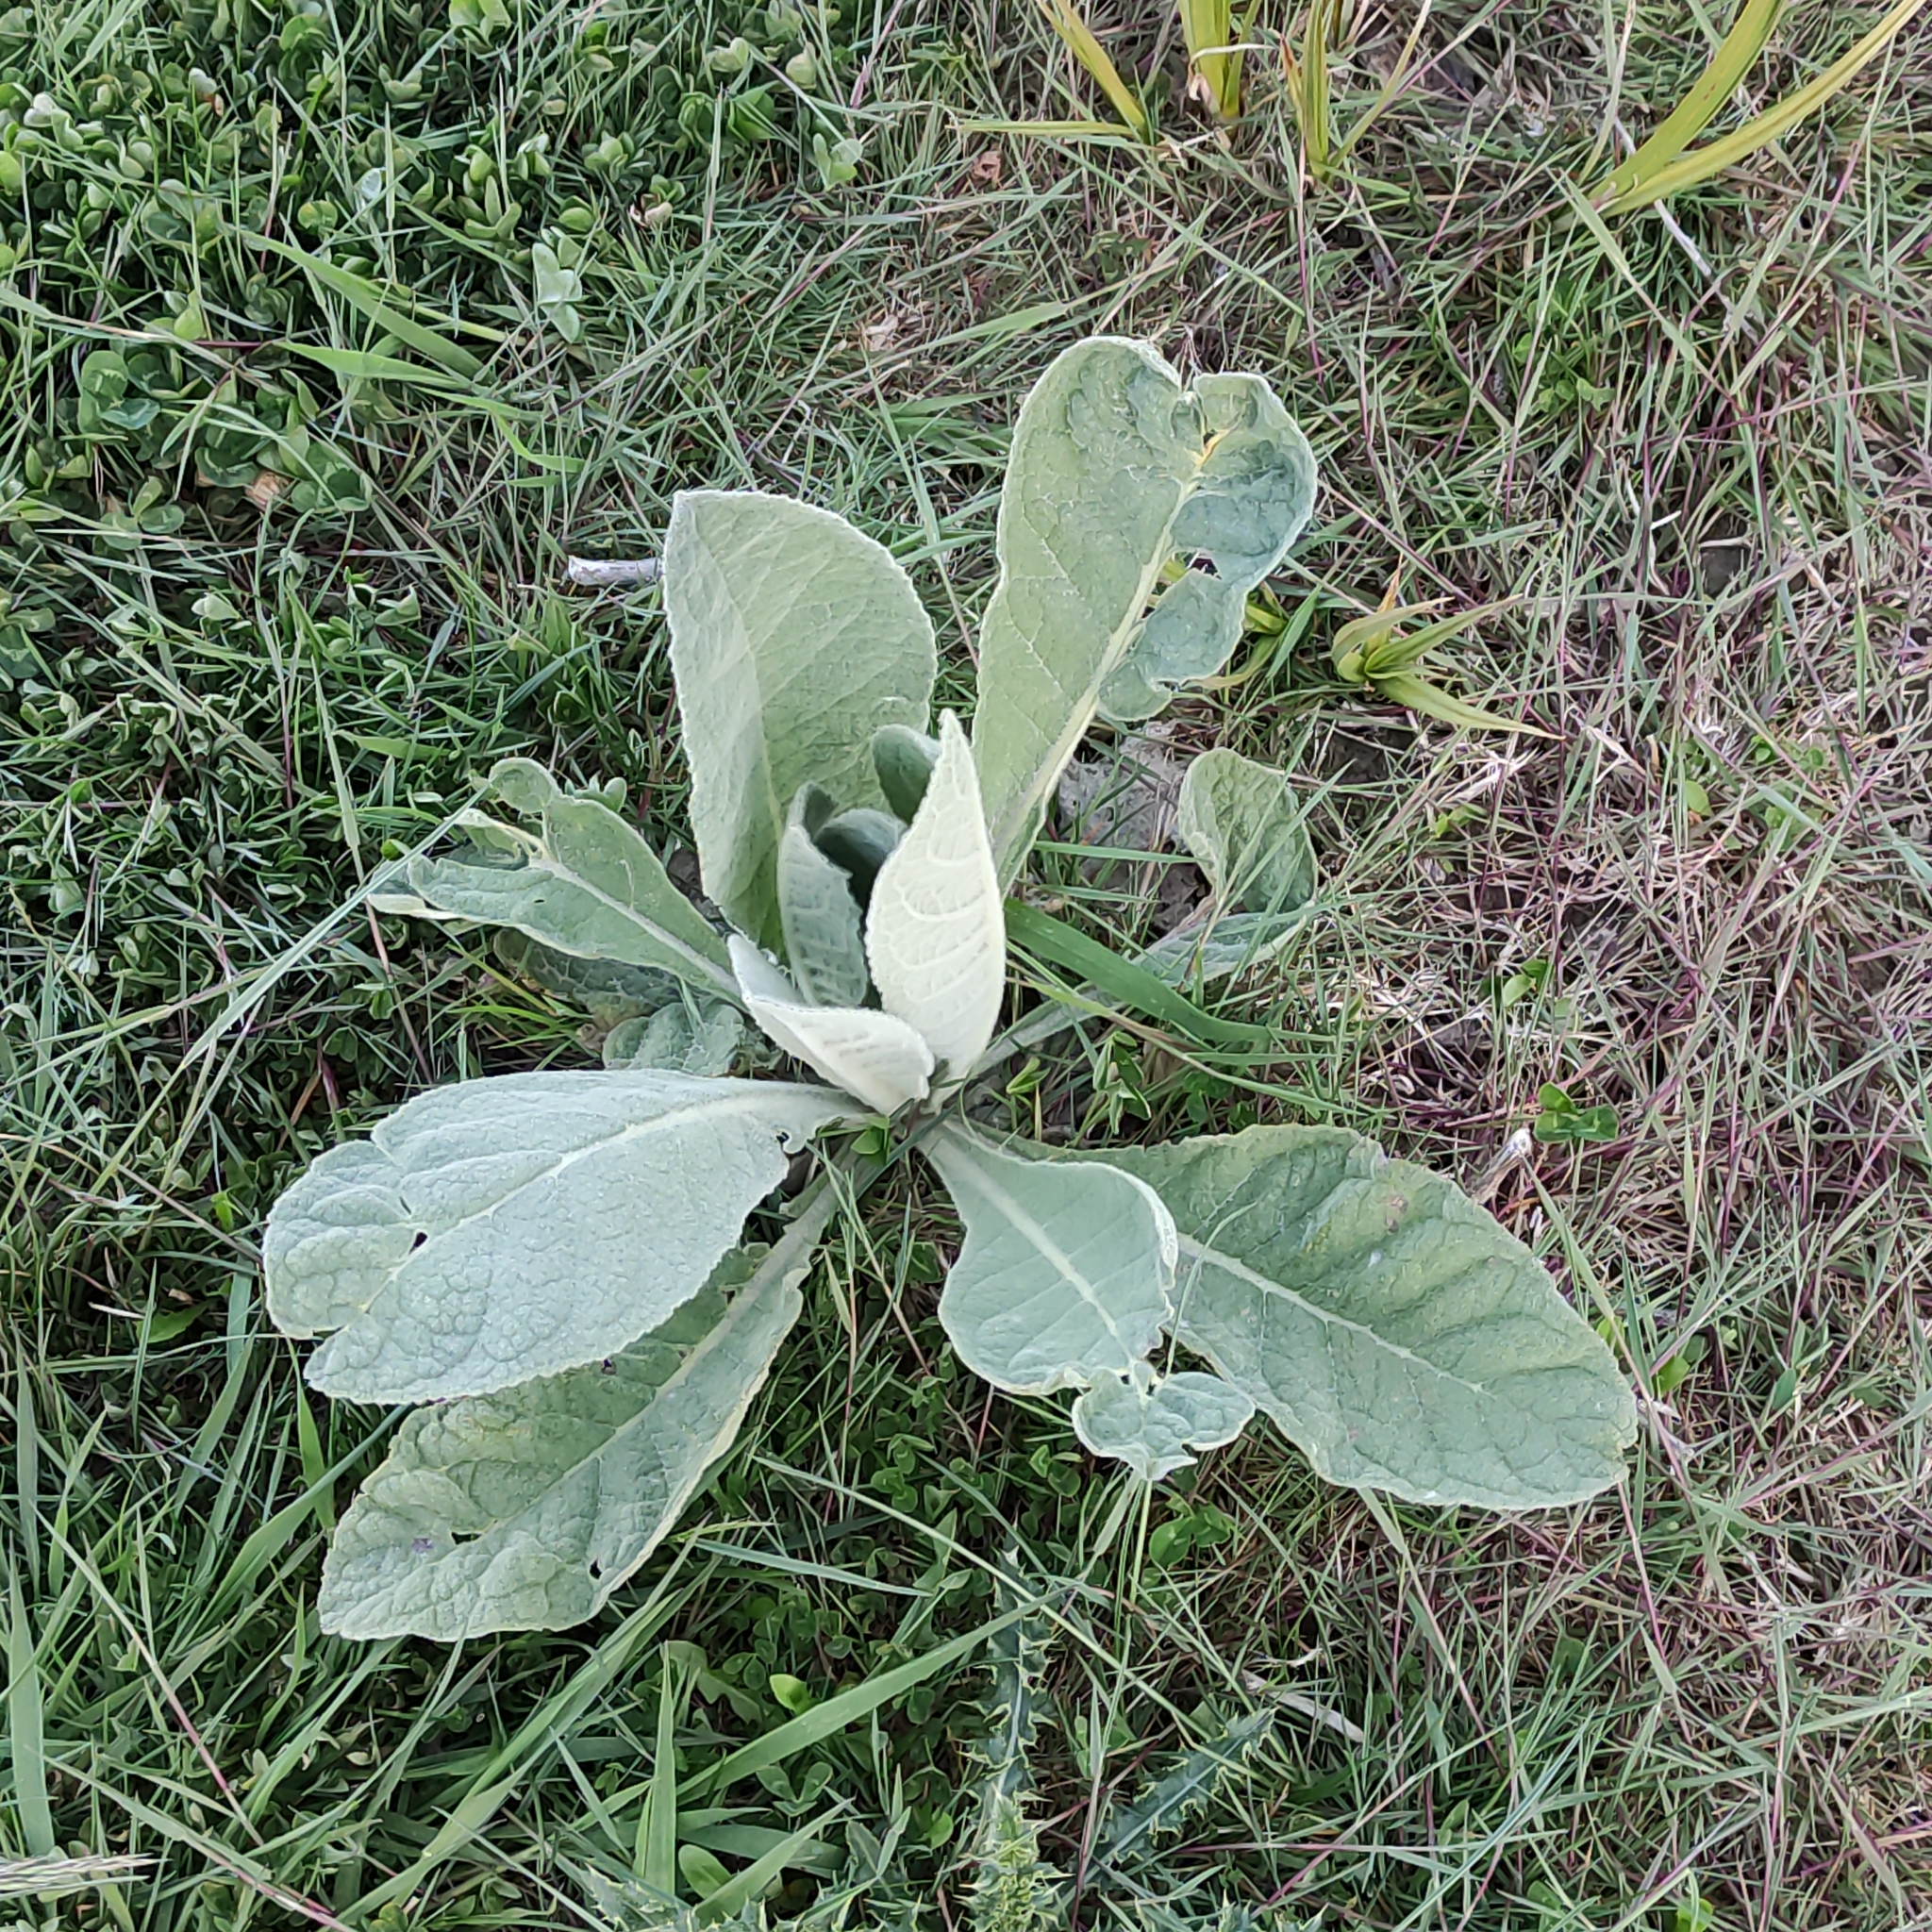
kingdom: Plantae
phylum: Tracheophyta
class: Magnoliopsida
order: Lamiales
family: Scrophulariaceae
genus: Verbascum
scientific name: Verbascum thapsus
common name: Common mullein
